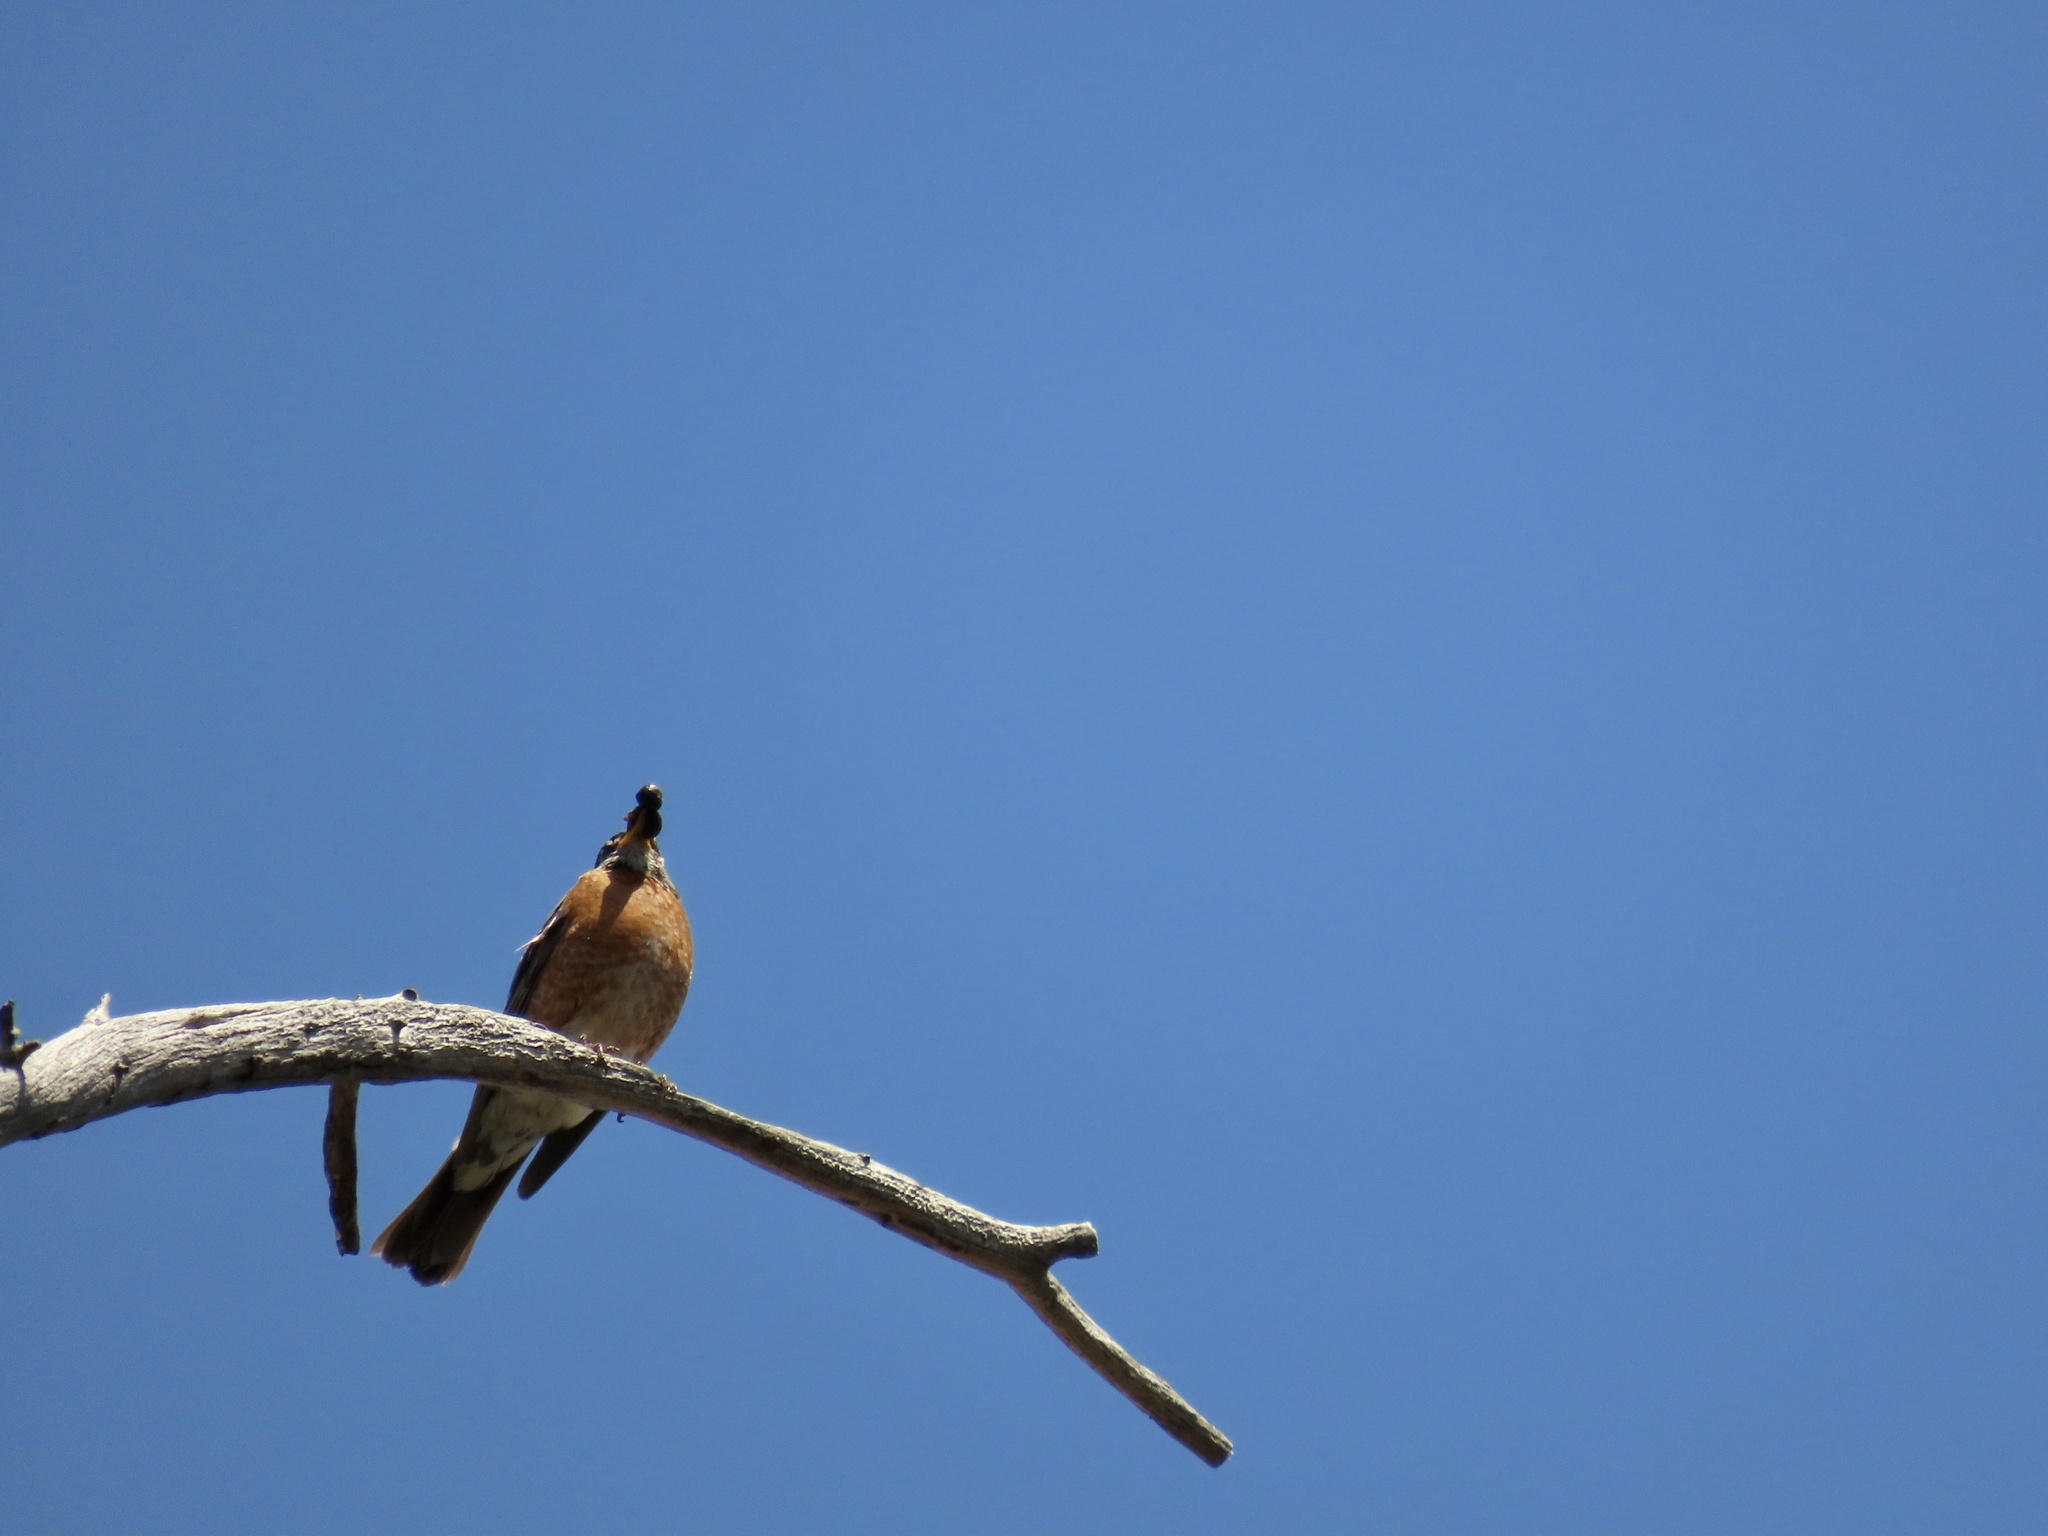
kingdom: Animalia
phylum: Chordata
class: Aves
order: Passeriformes
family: Turdidae
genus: Turdus
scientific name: Turdus migratorius
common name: American robin
